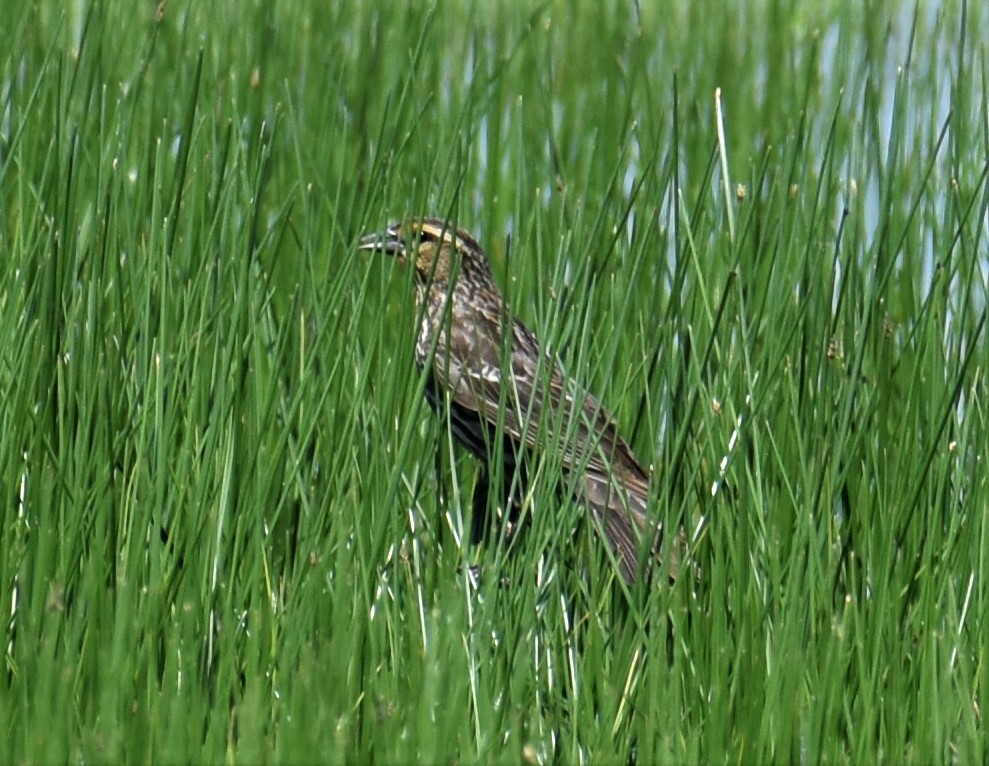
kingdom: Animalia
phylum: Chordata
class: Aves
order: Passeriformes
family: Icteridae
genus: Agelaius
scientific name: Agelaius phoeniceus
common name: Red-winged blackbird
